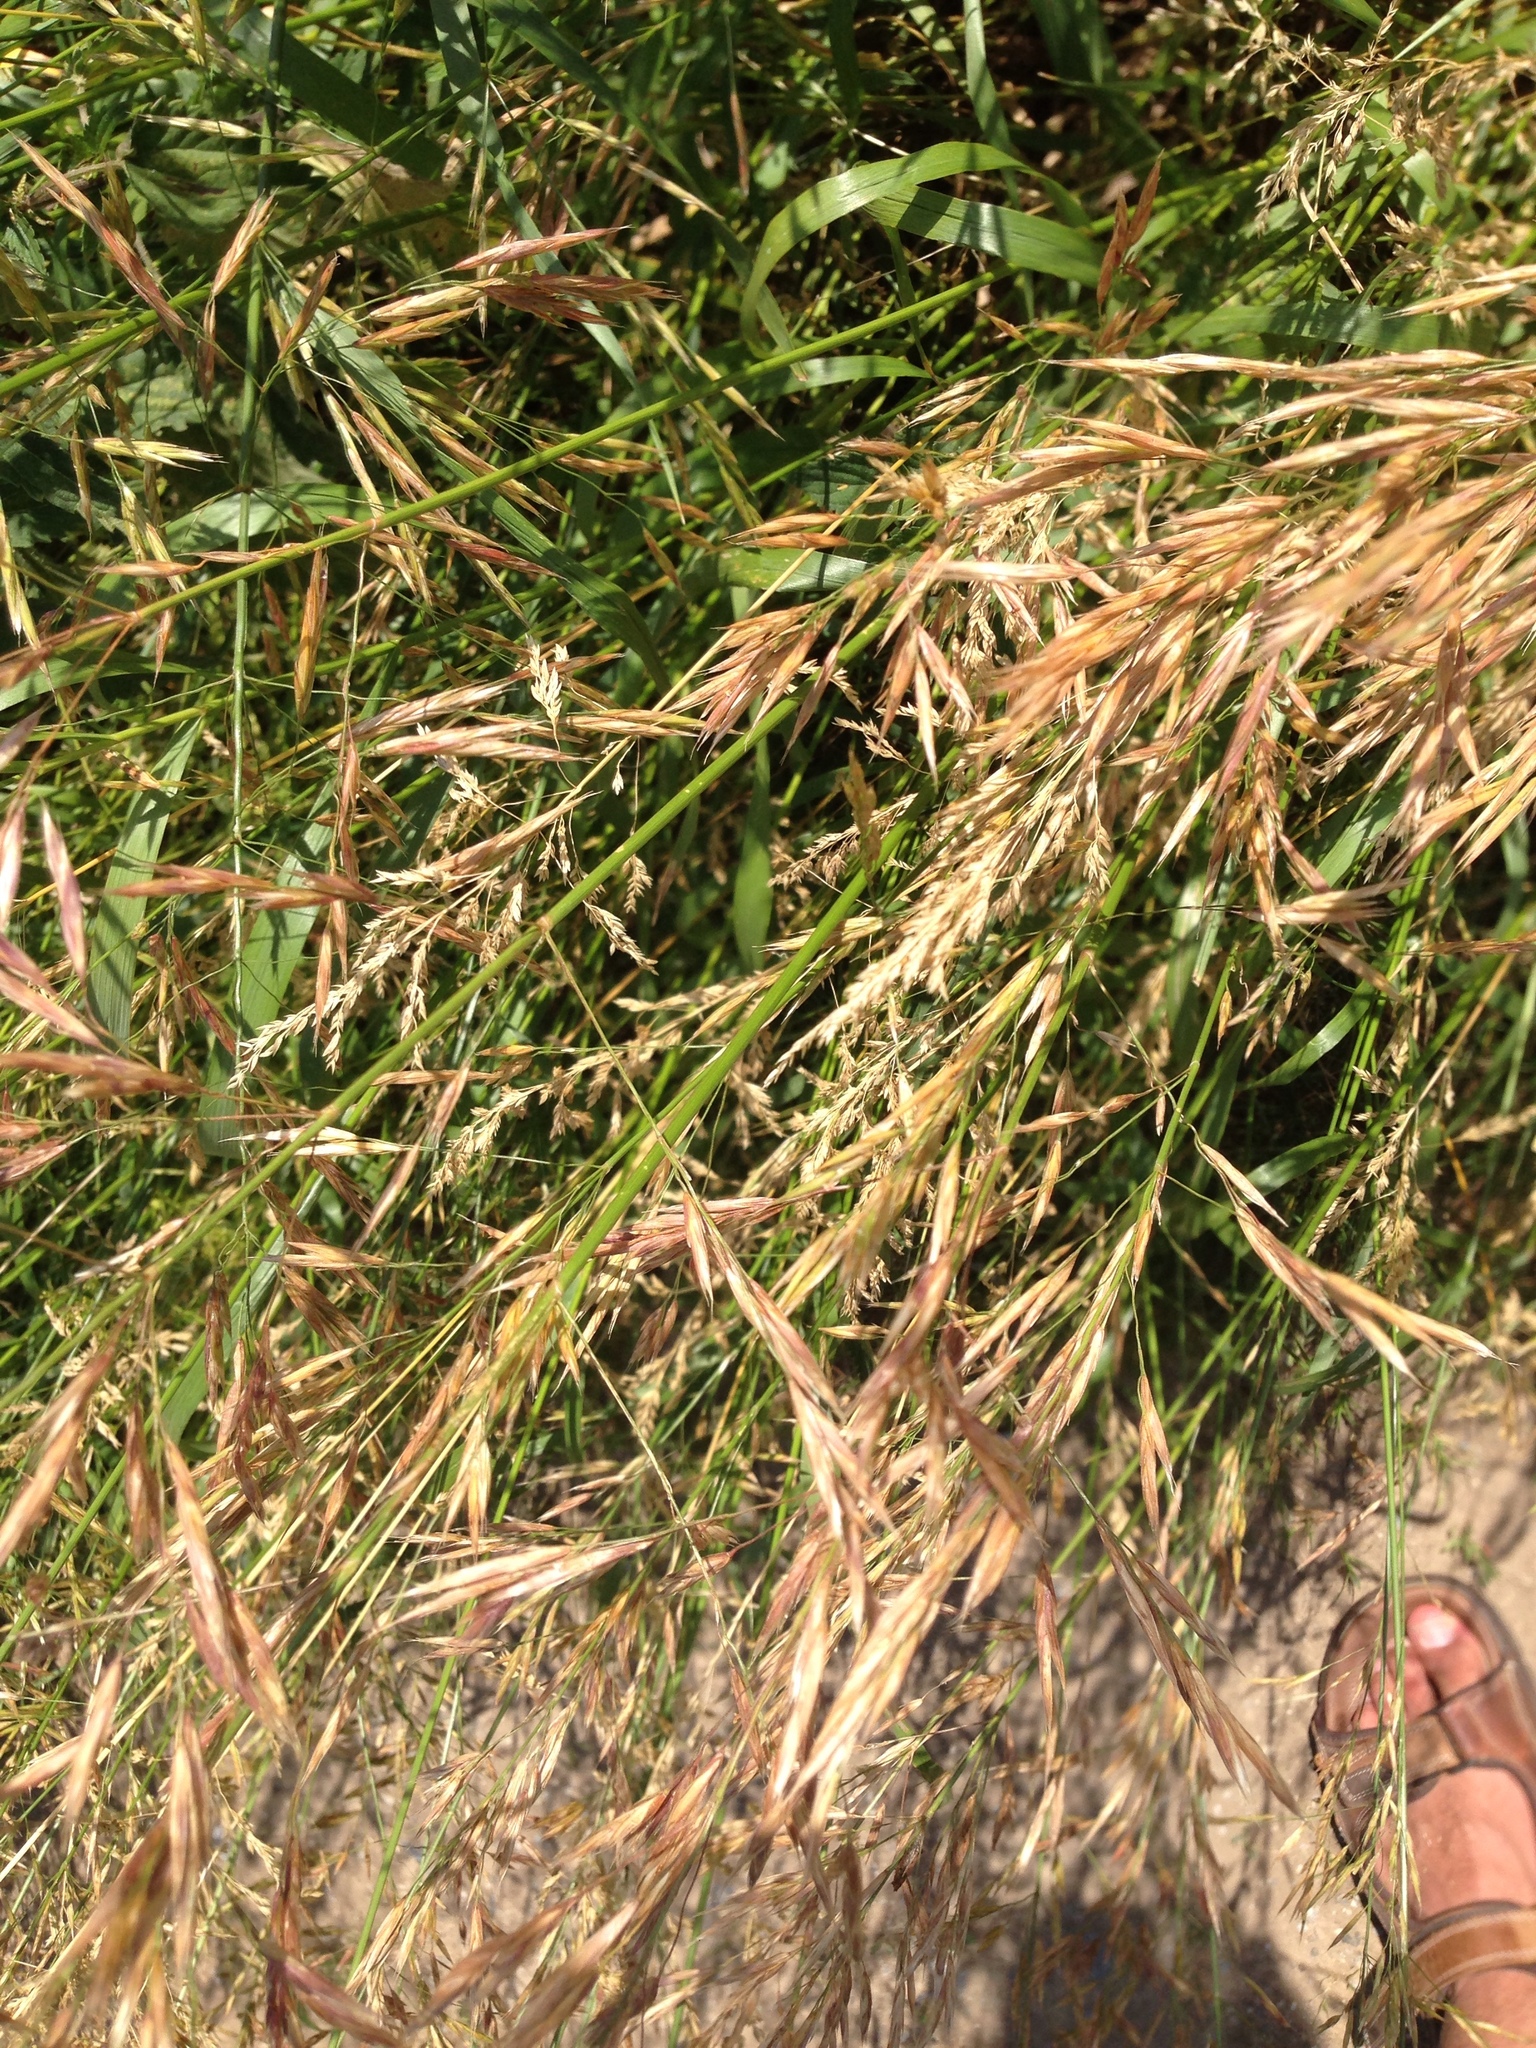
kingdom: Plantae
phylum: Tracheophyta
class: Liliopsida
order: Poales
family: Poaceae
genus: Bromus
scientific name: Bromus inermis
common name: Smooth brome
